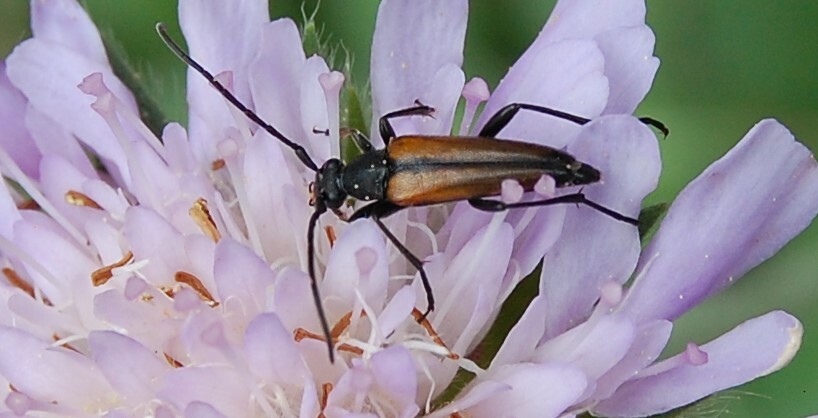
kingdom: Animalia
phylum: Arthropoda
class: Insecta
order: Coleoptera
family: Cerambycidae
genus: Stenurella
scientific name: Stenurella melanura
